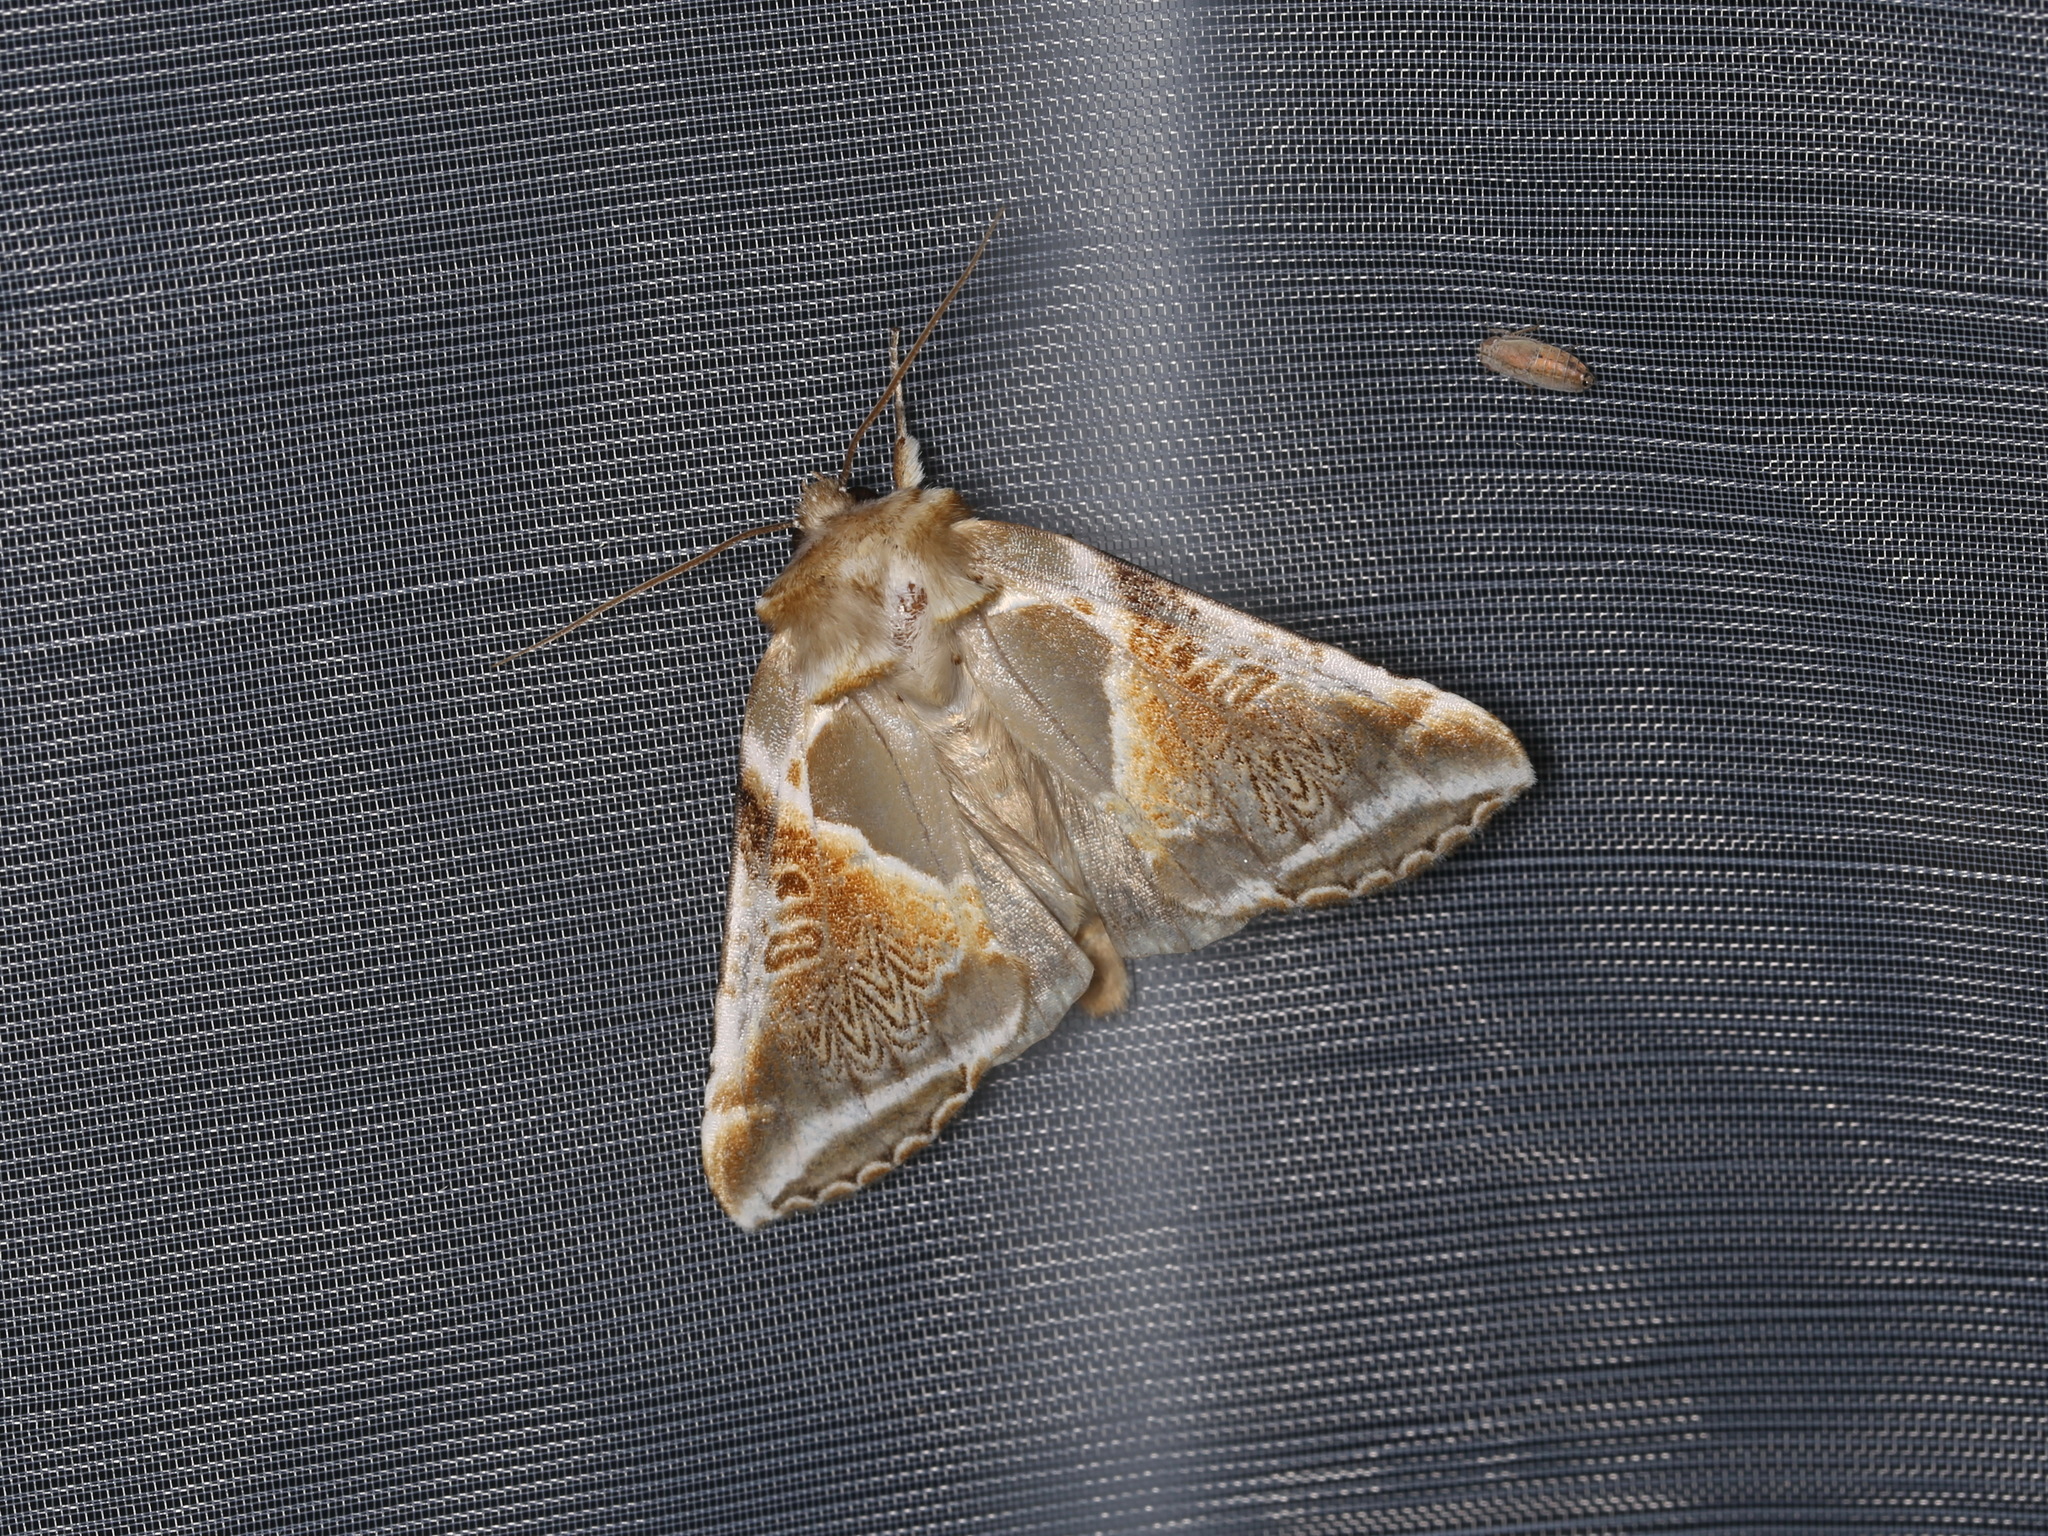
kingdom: Animalia
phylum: Arthropoda
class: Insecta
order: Lepidoptera
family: Drepanidae
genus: Habrosyne
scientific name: Habrosyne pyritoides
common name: Buff arches
